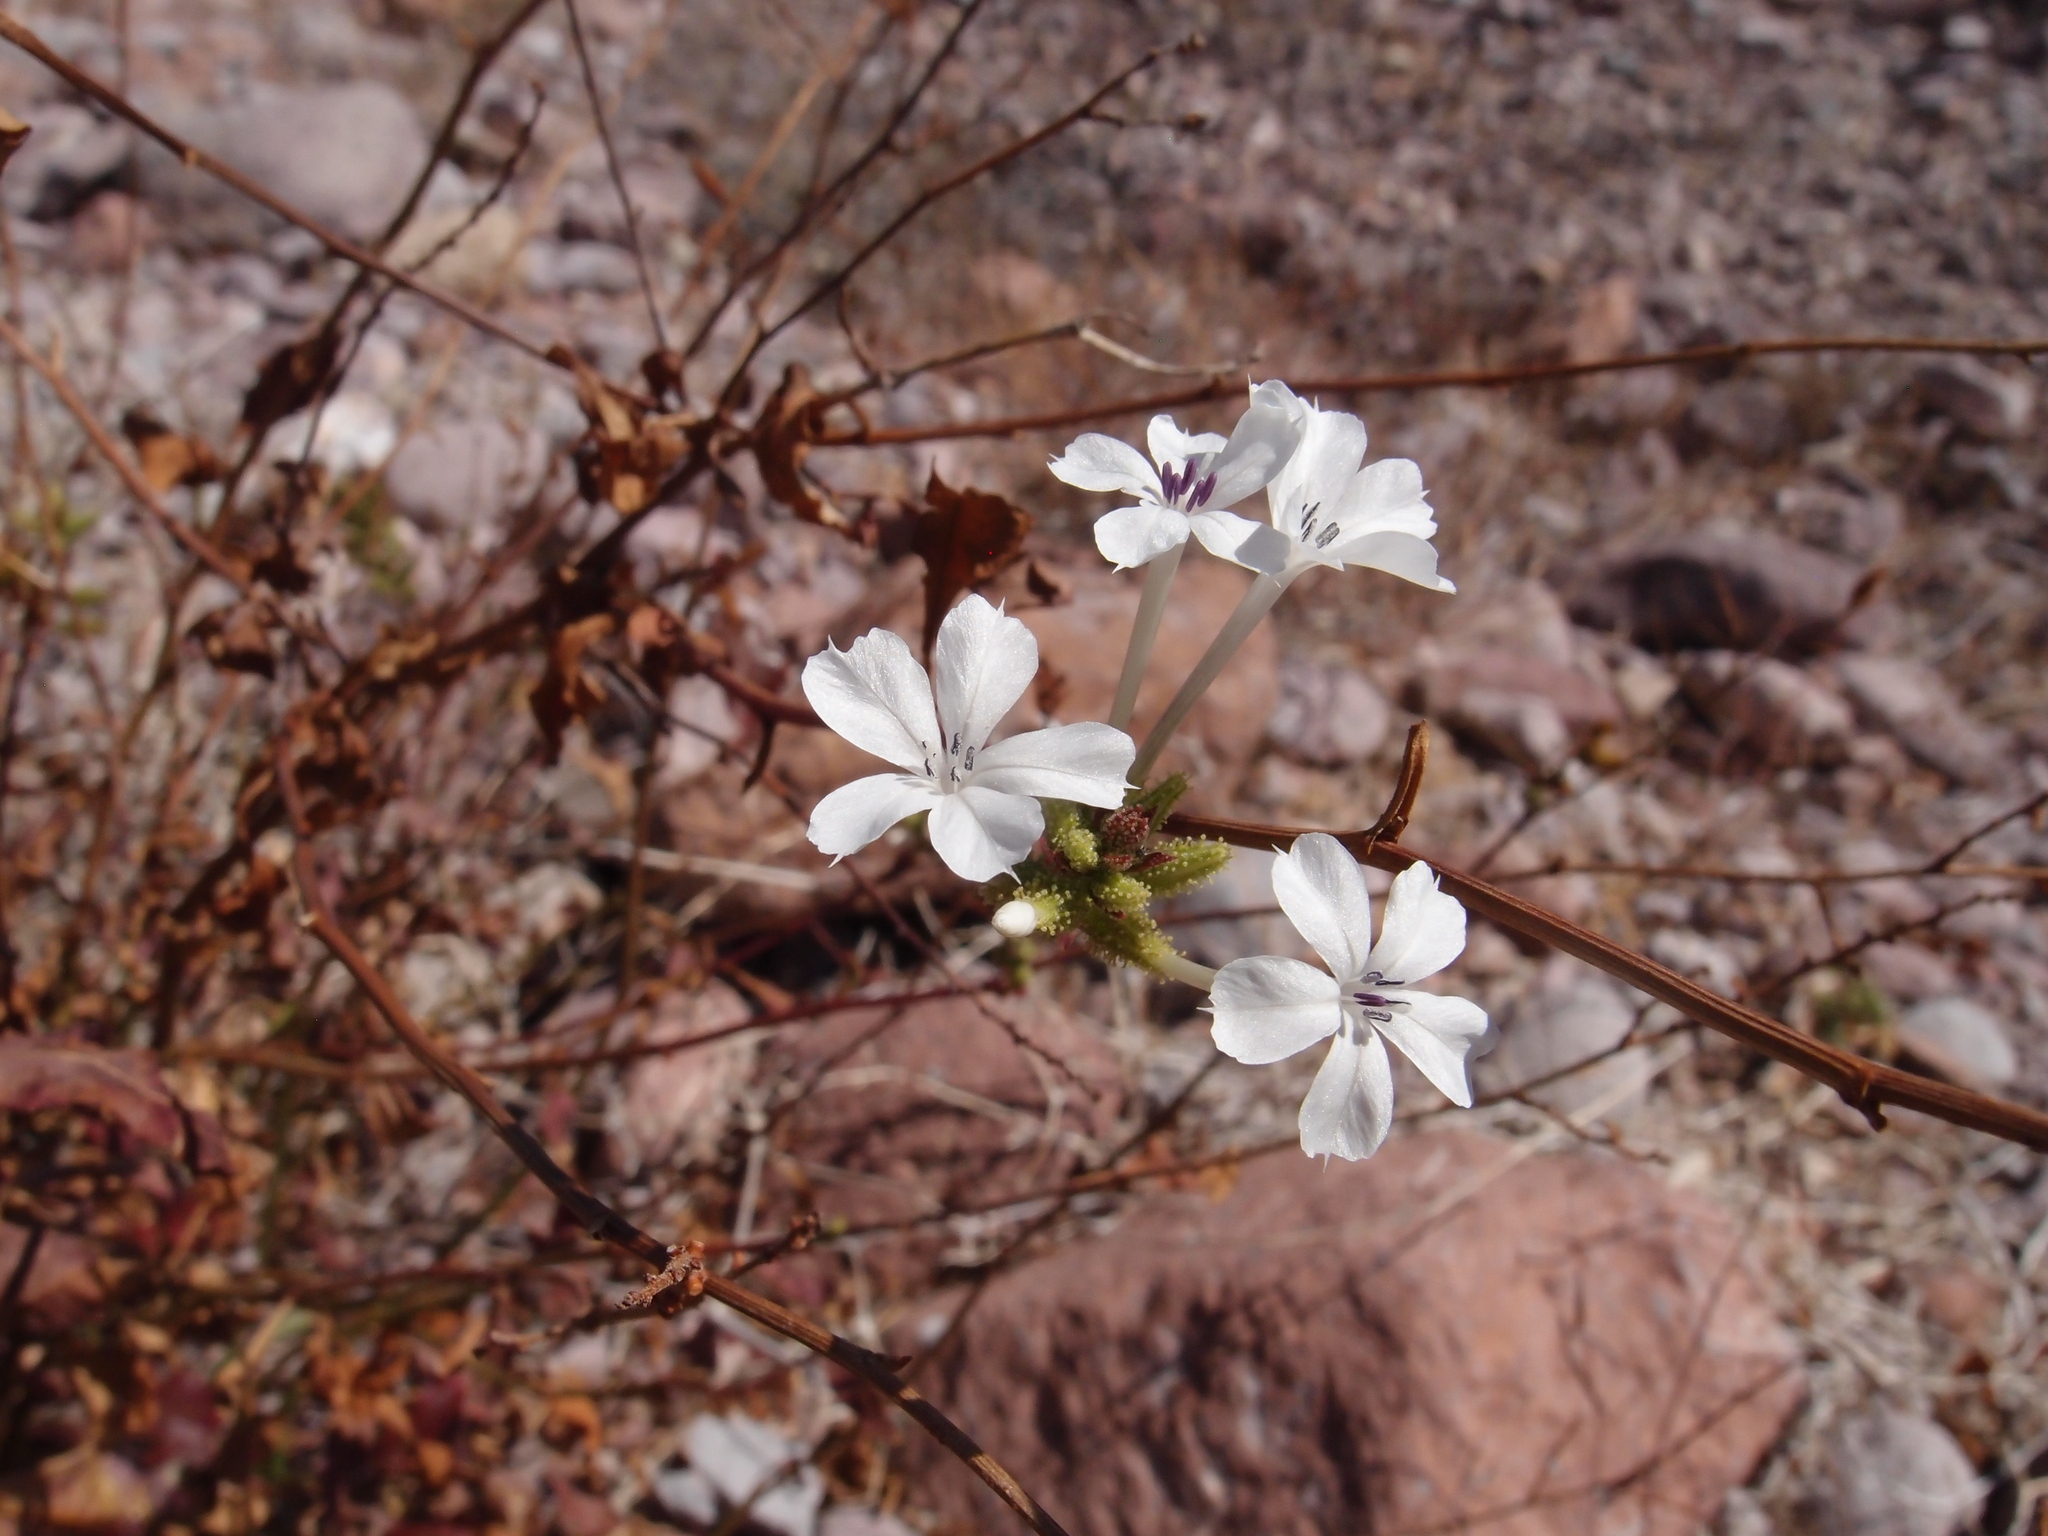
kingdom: Plantae
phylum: Tracheophyta
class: Magnoliopsida
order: Caryophyllales
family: Plumbaginaceae
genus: Plumbago
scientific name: Plumbago zeylanica
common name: Doctorbush
